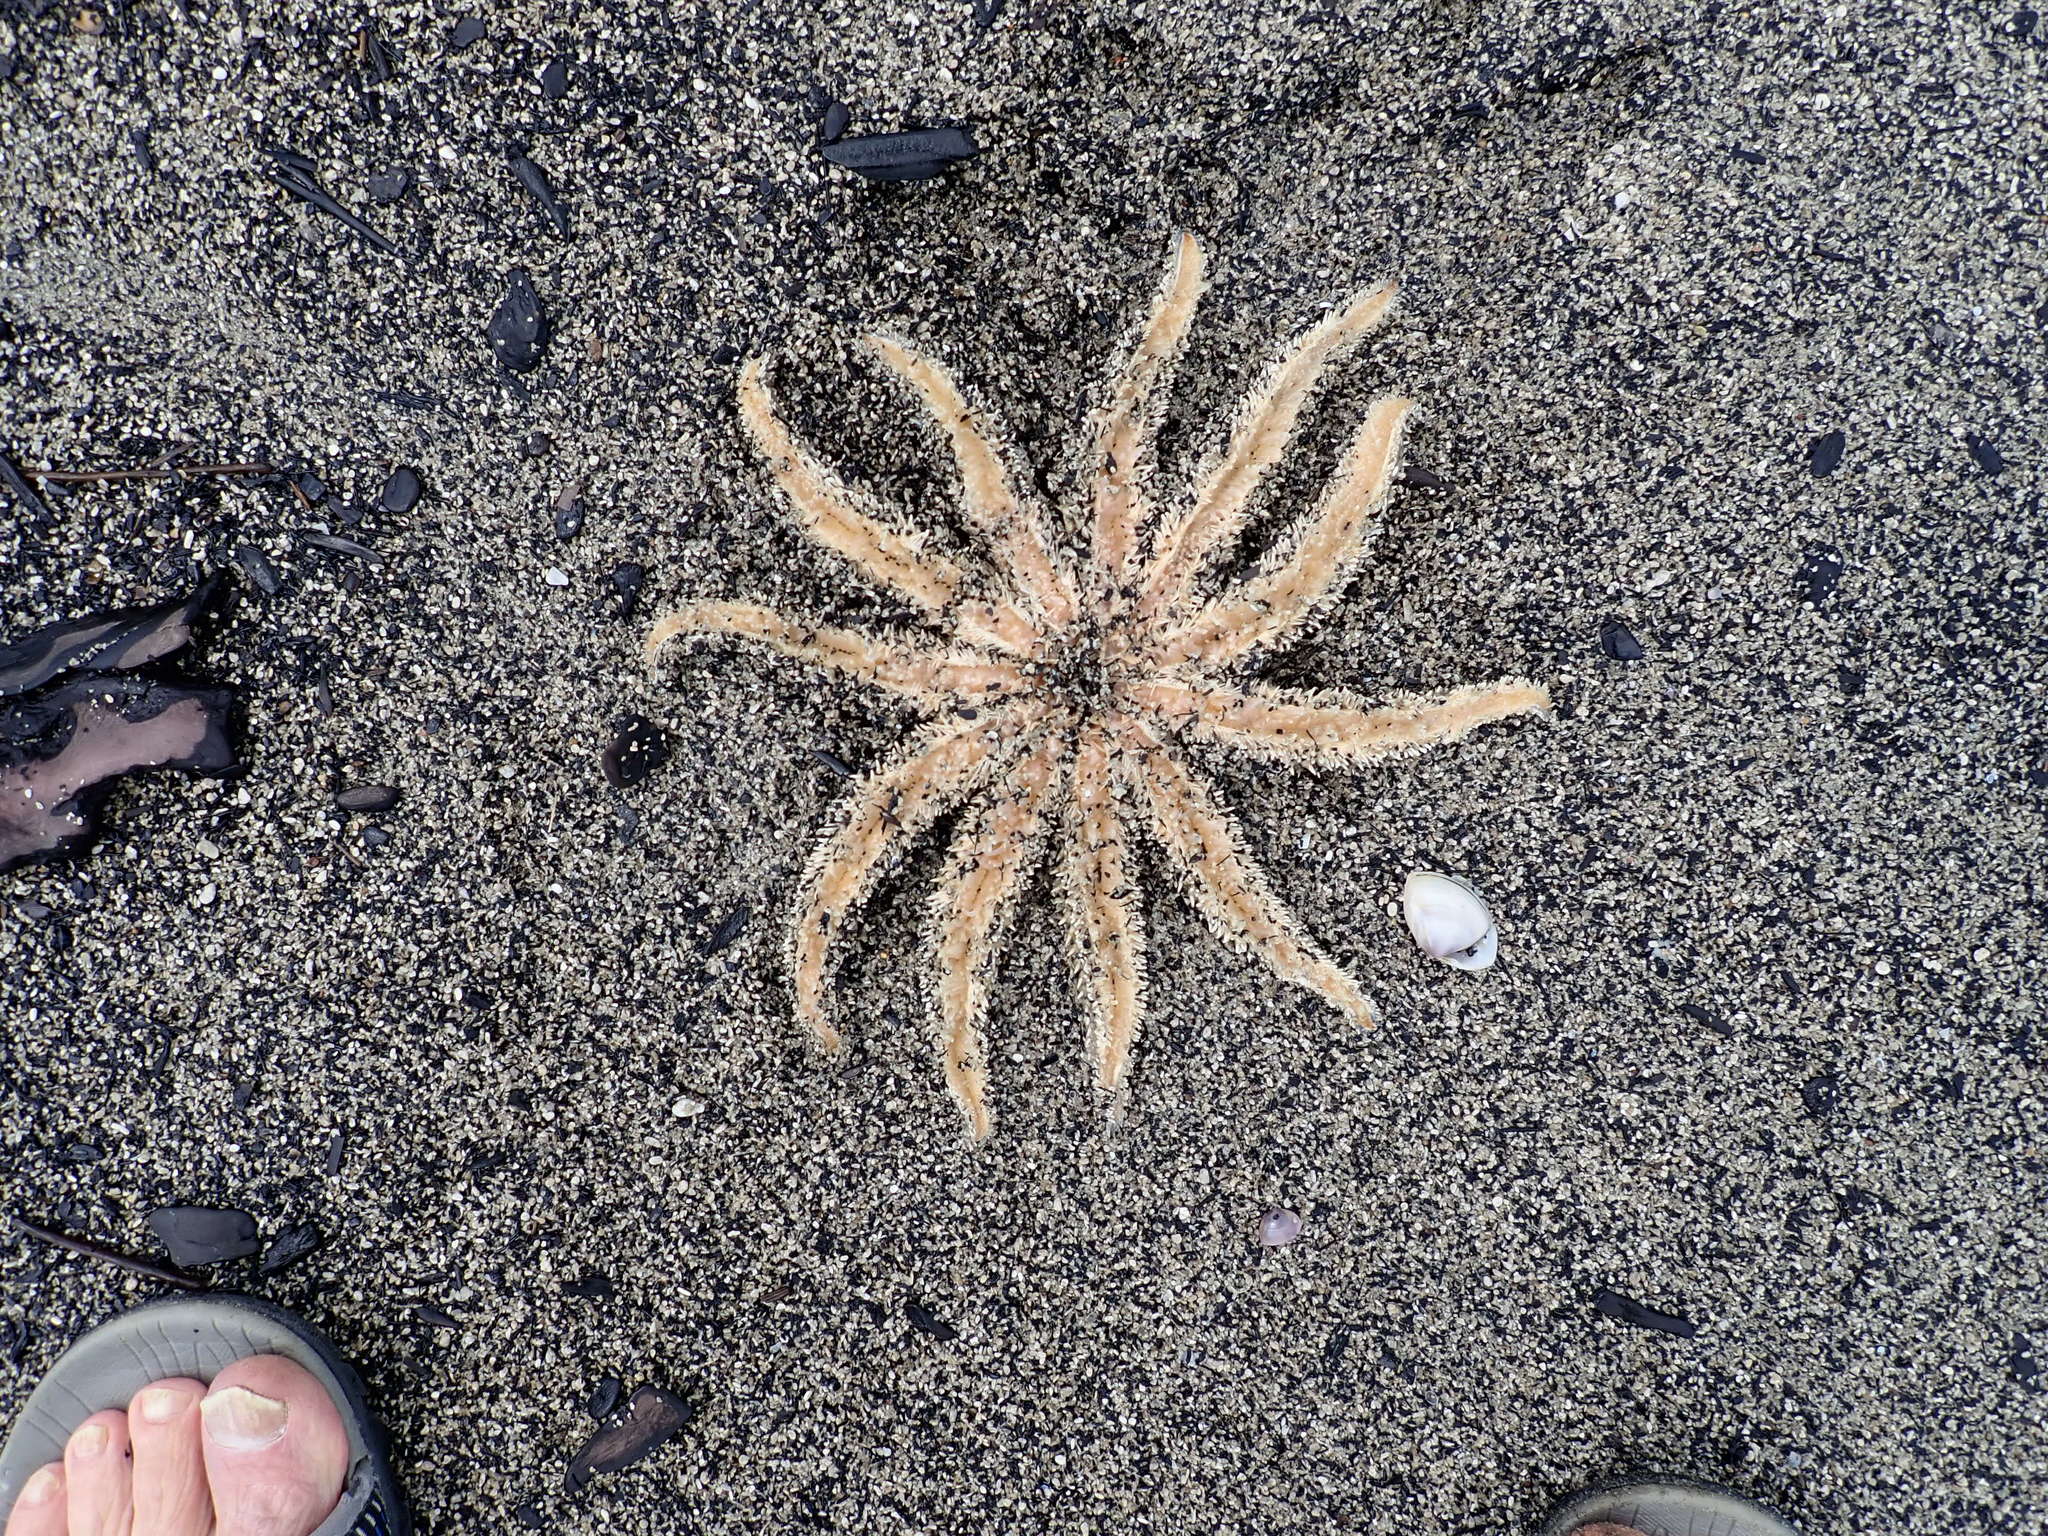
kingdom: Animalia
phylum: Echinodermata
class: Asteroidea
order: Forcipulatida
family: Asteriidae
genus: Coscinasterias
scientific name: Coscinasterias muricata
